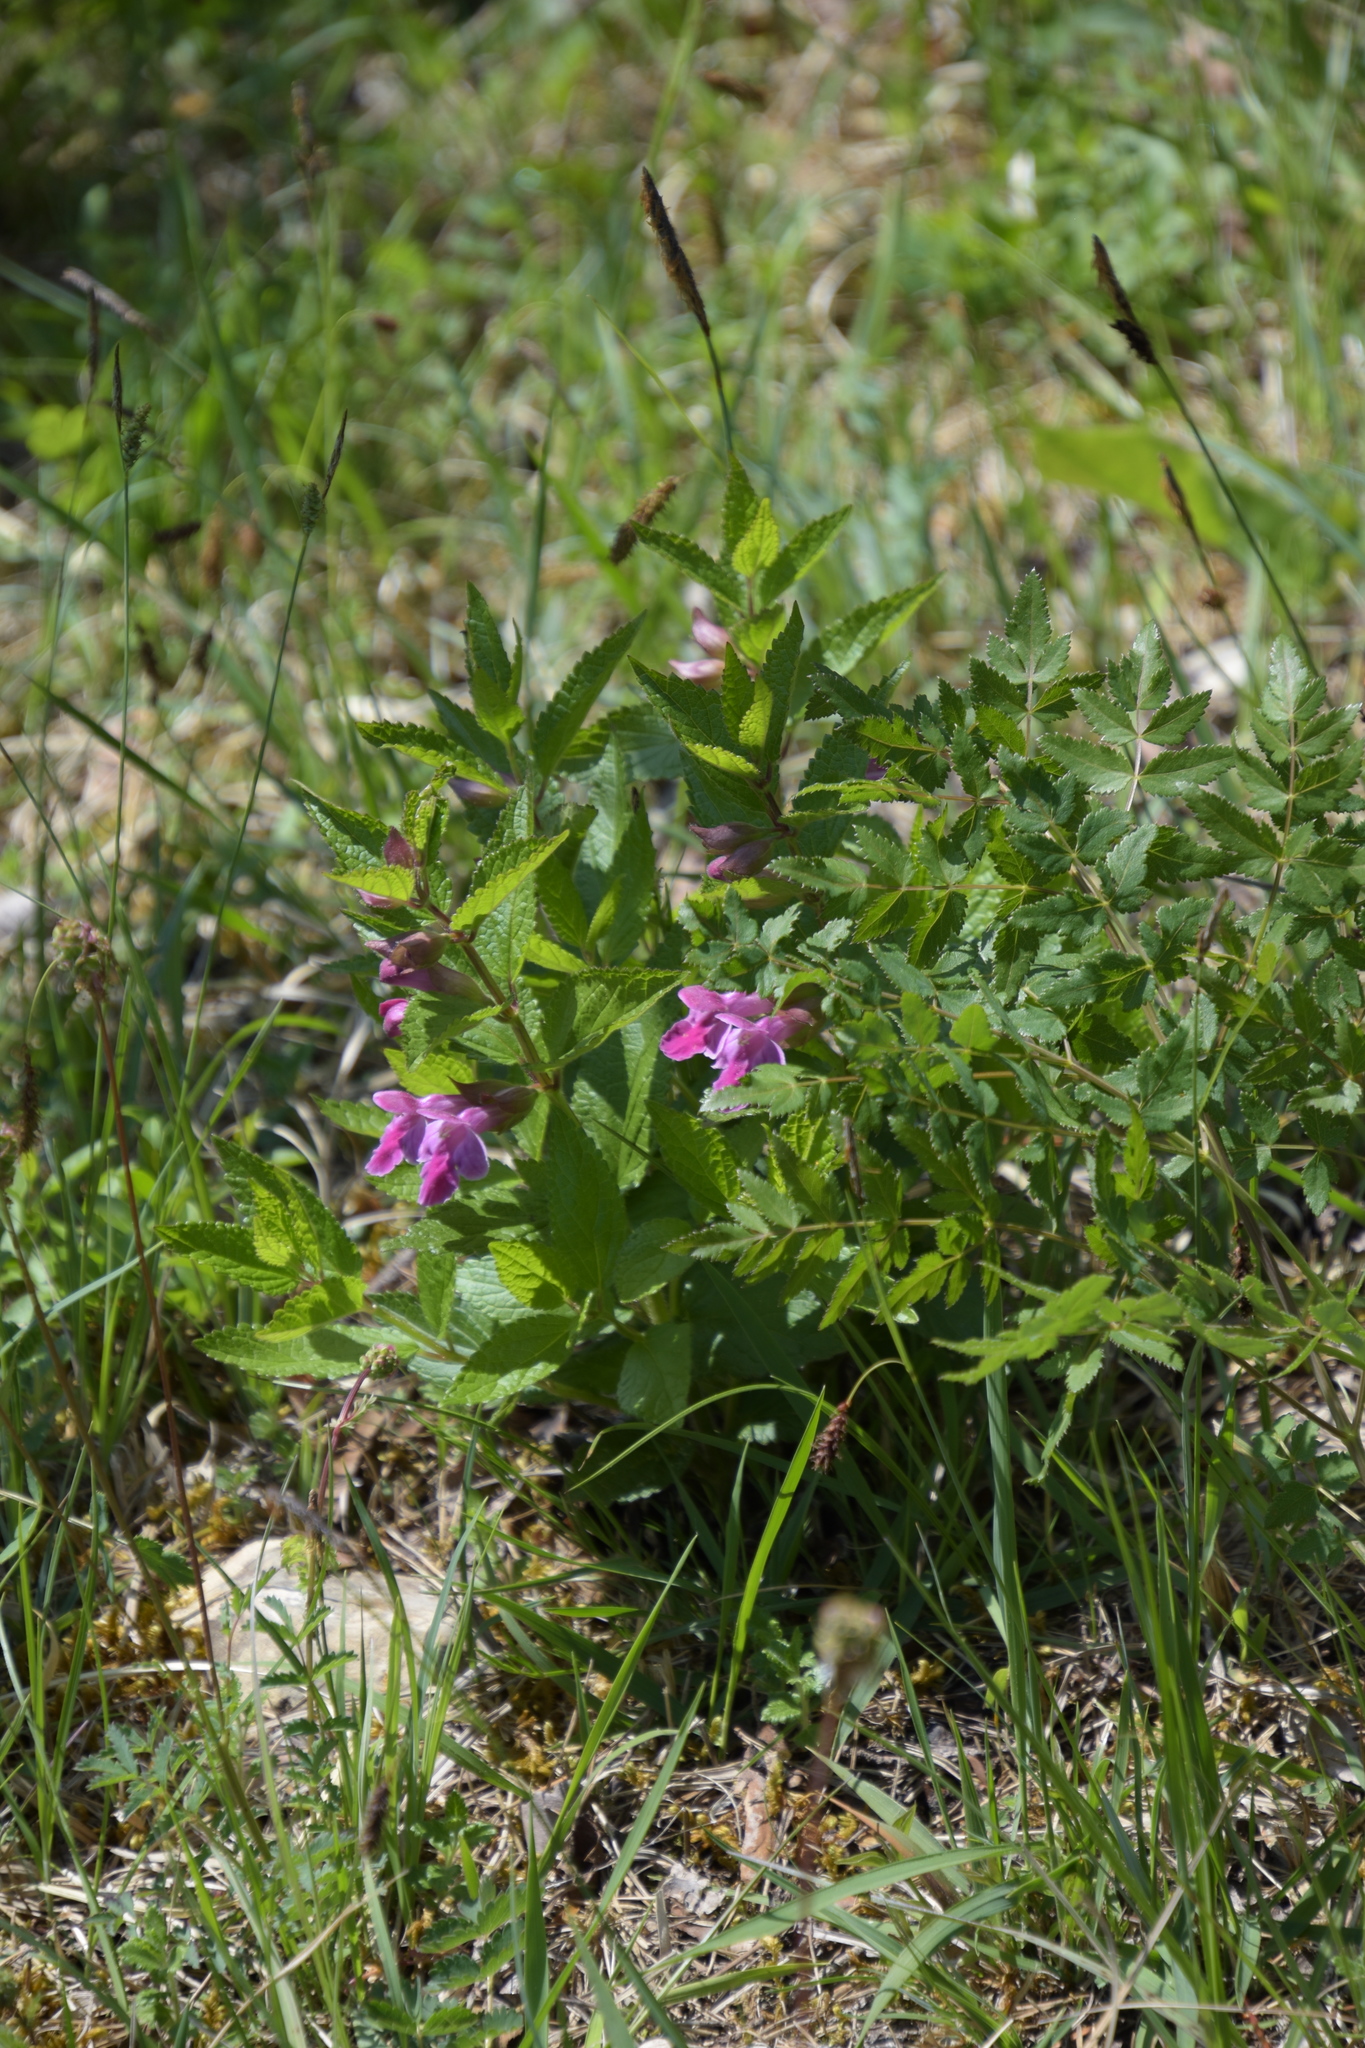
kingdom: Plantae
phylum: Tracheophyta
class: Magnoliopsida
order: Lamiales
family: Lamiaceae
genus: Melittis
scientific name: Melittis melissophyllum
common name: Bastard balm
